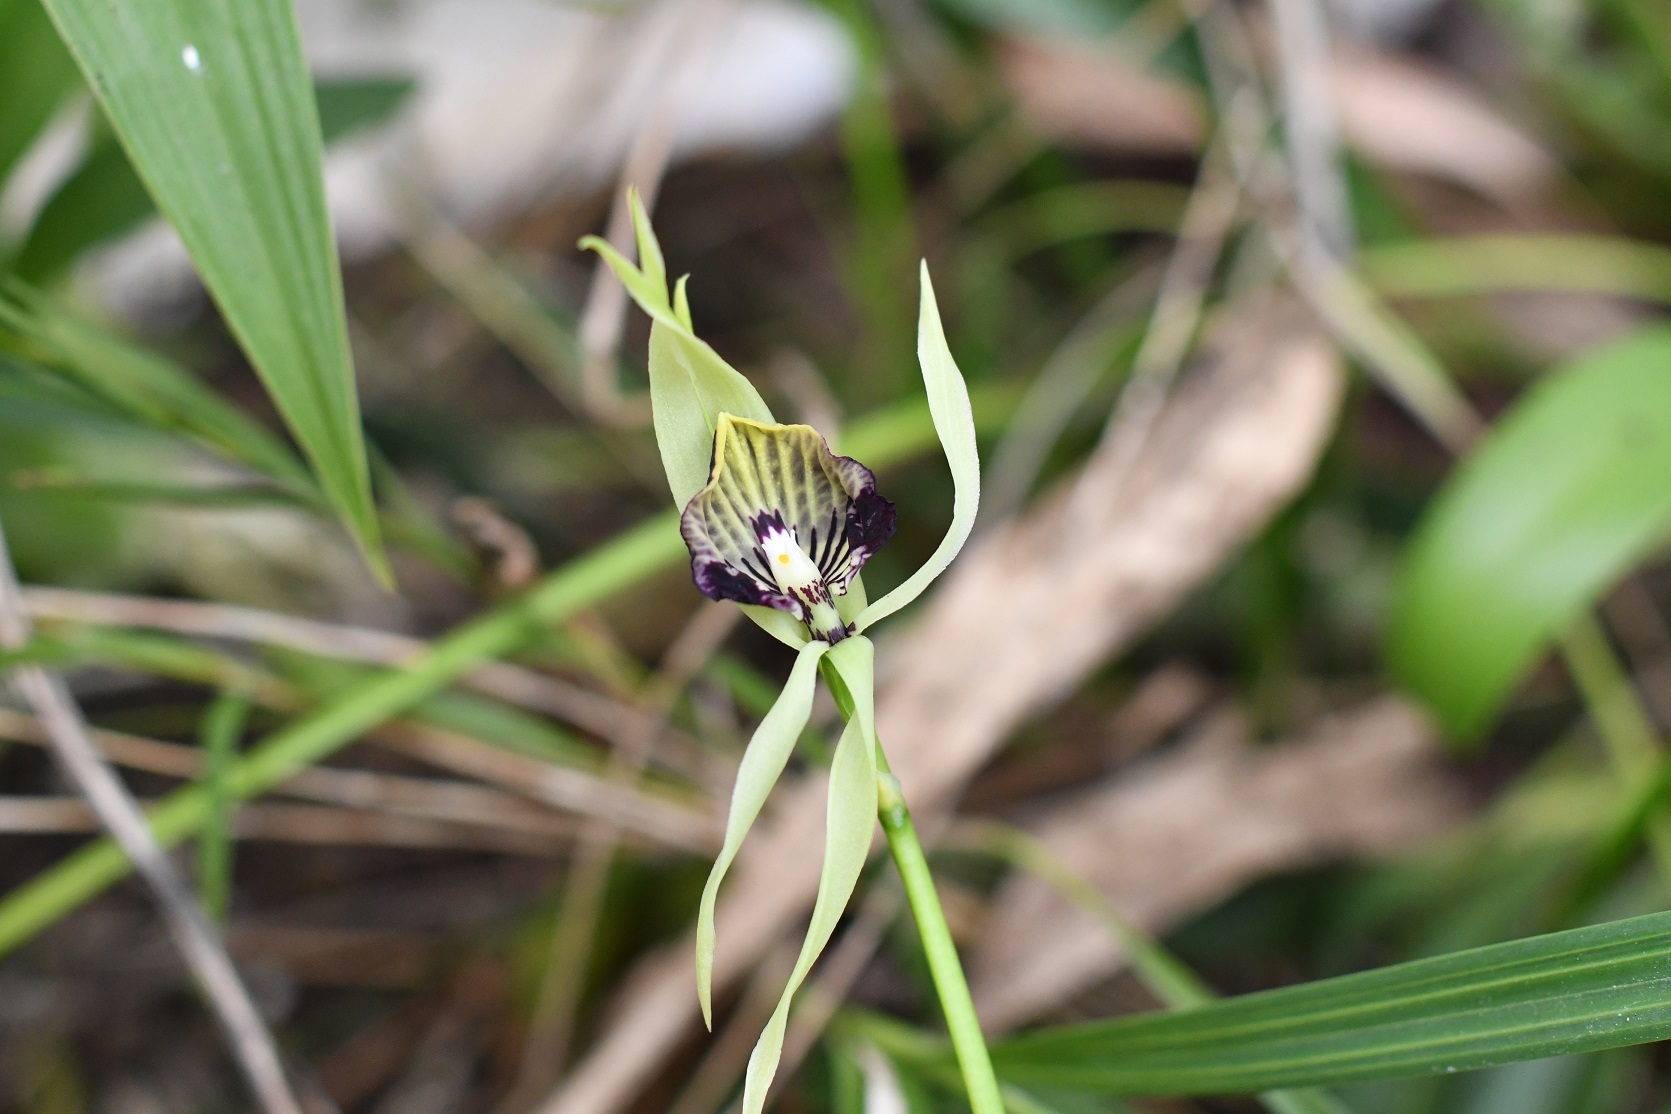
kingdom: Plantae
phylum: Tracheophyta
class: Liliopsida
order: Asparagales
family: Orchidaceae
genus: Prosthechea
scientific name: Prosthechea cochleata
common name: Clamshell orchid
